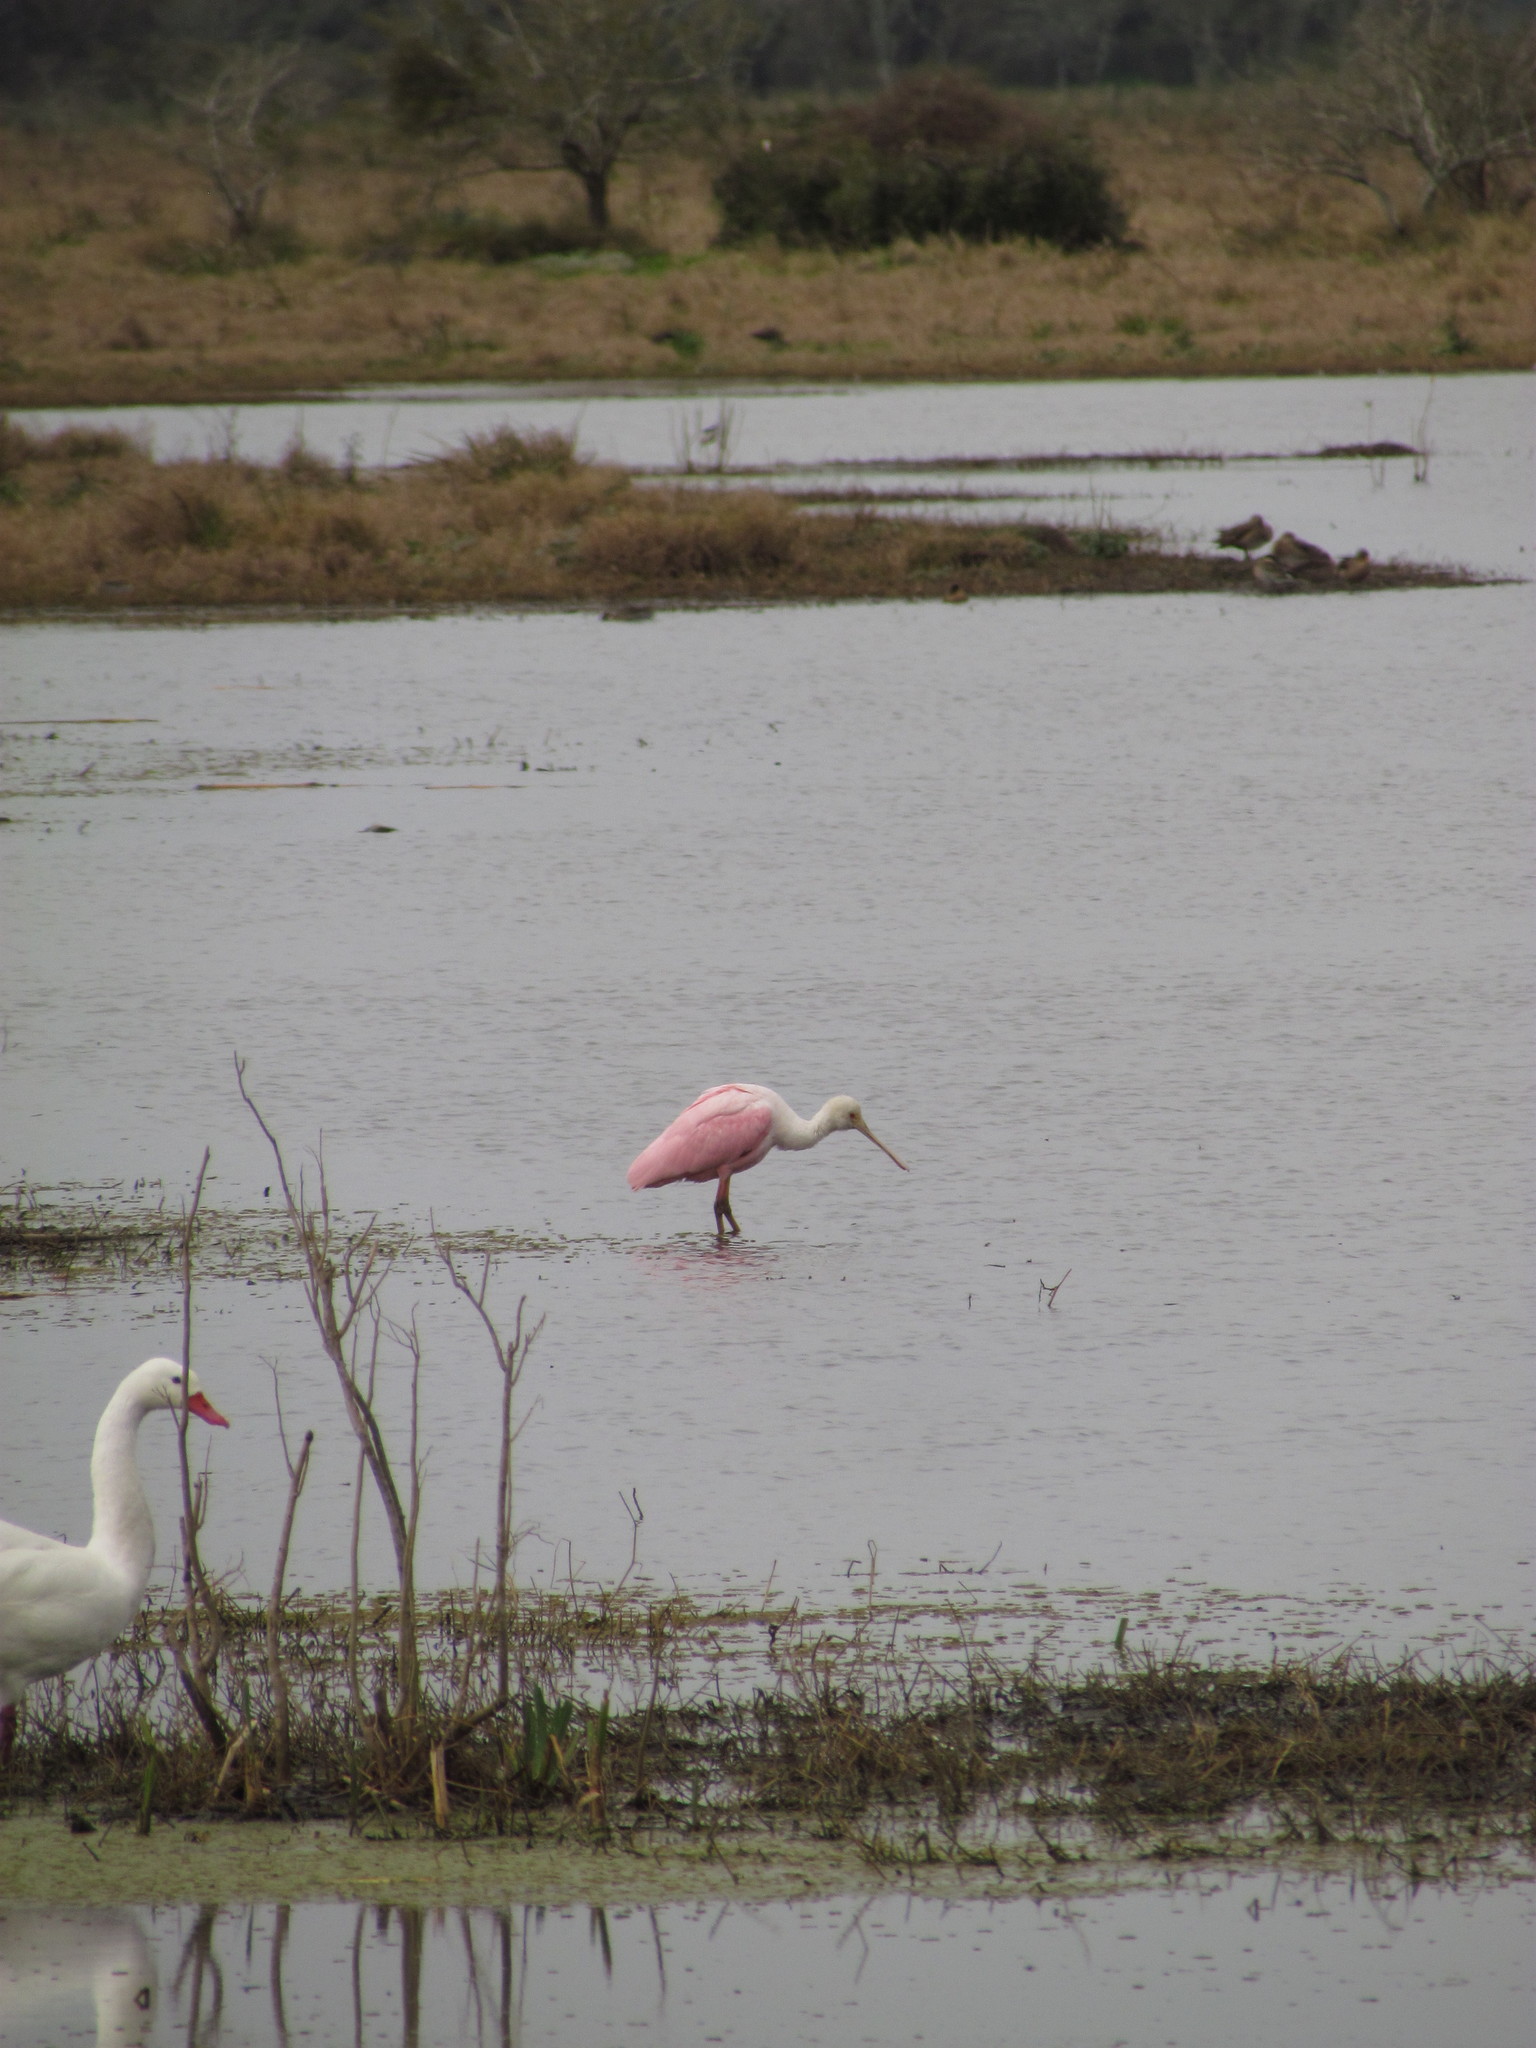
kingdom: Animalia
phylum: Chordata
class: Aves
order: Pelecaniformes
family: Threskiornithidae
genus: Platalea
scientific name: Platalea ajaja
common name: Roseate spoonbill
